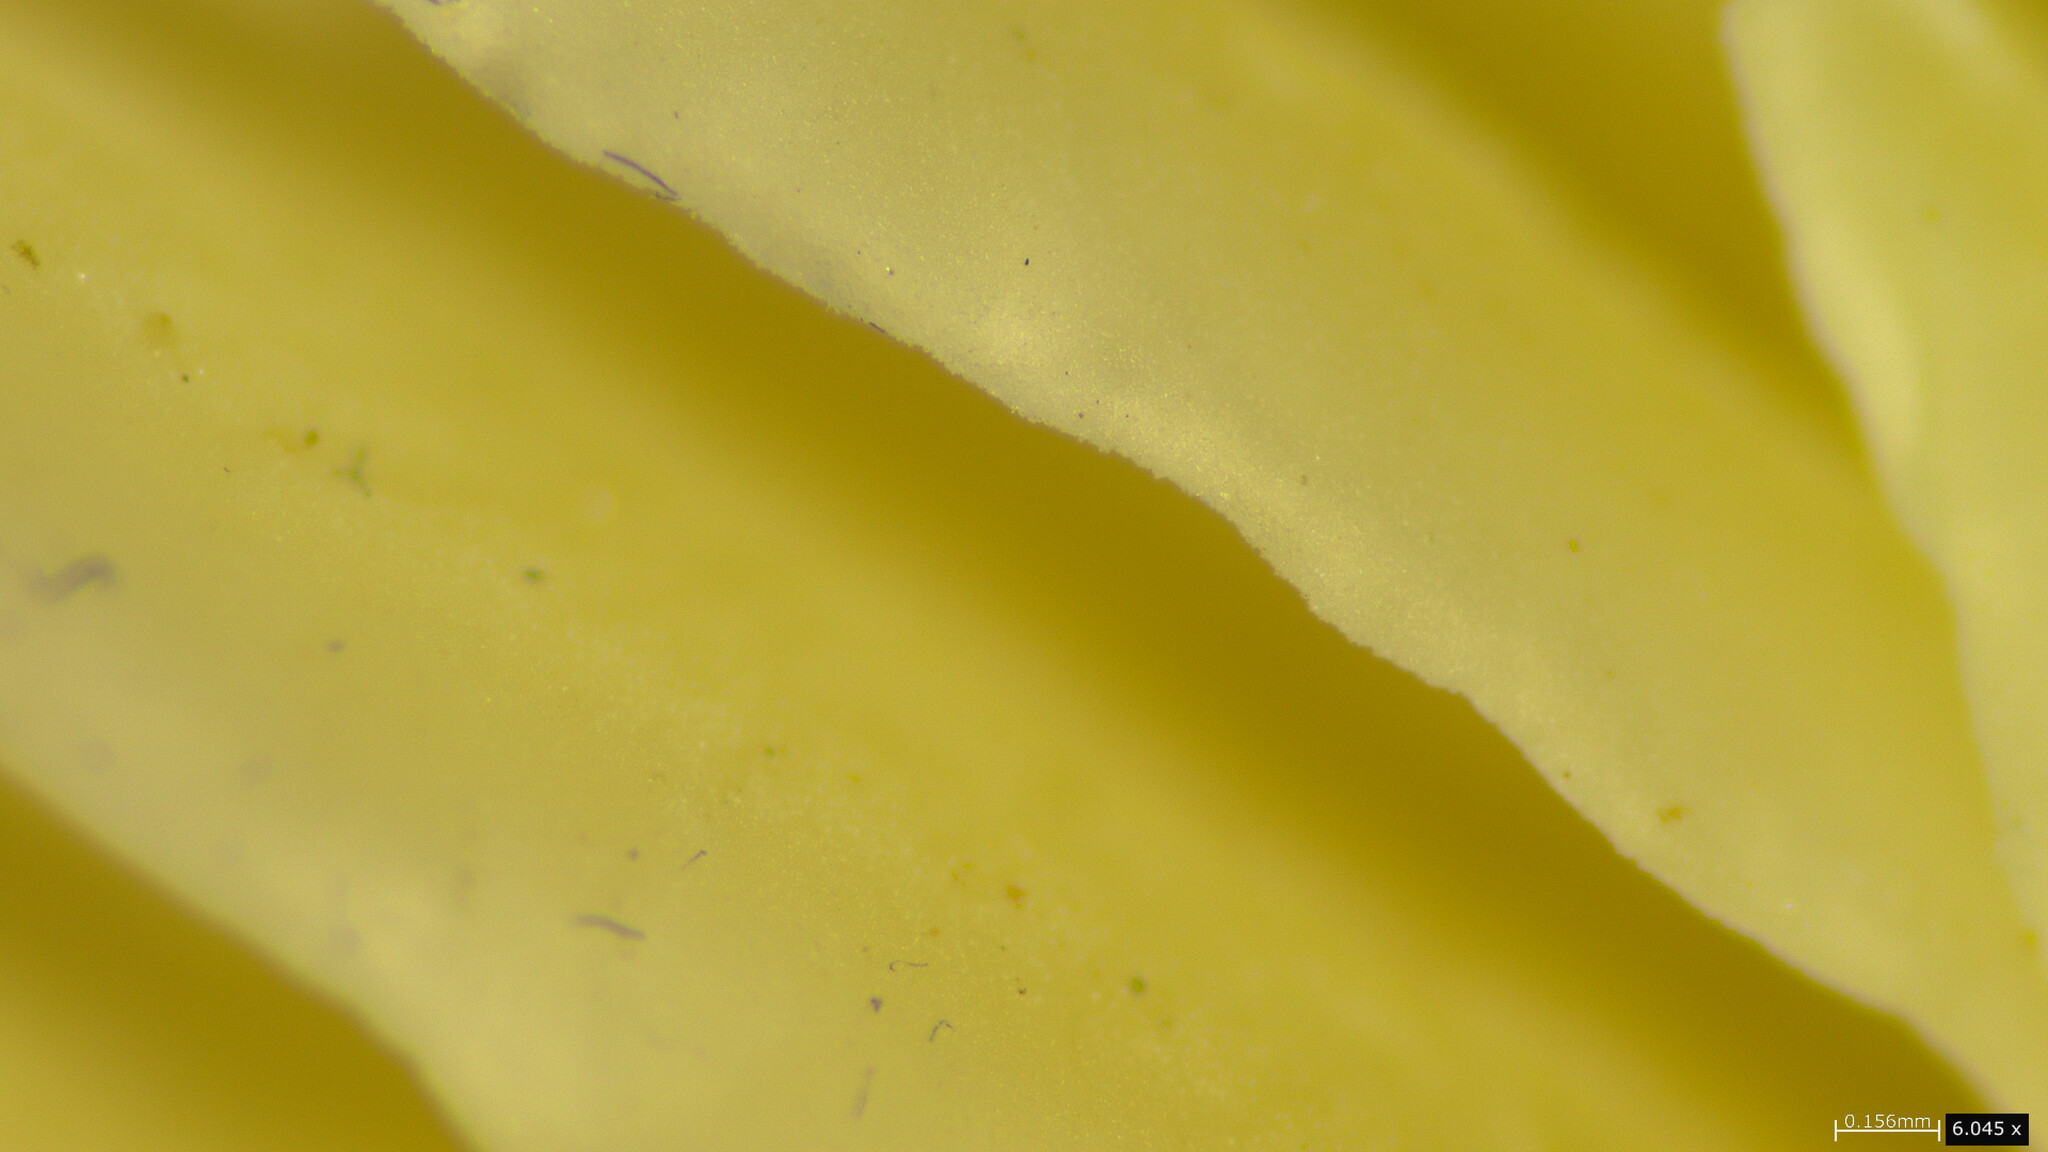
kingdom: Fungi
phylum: Basidiomycota
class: Agaricomycetes
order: Agaricales
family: Entolomataceae
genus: Entoloma
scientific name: Entoloma kujuense
